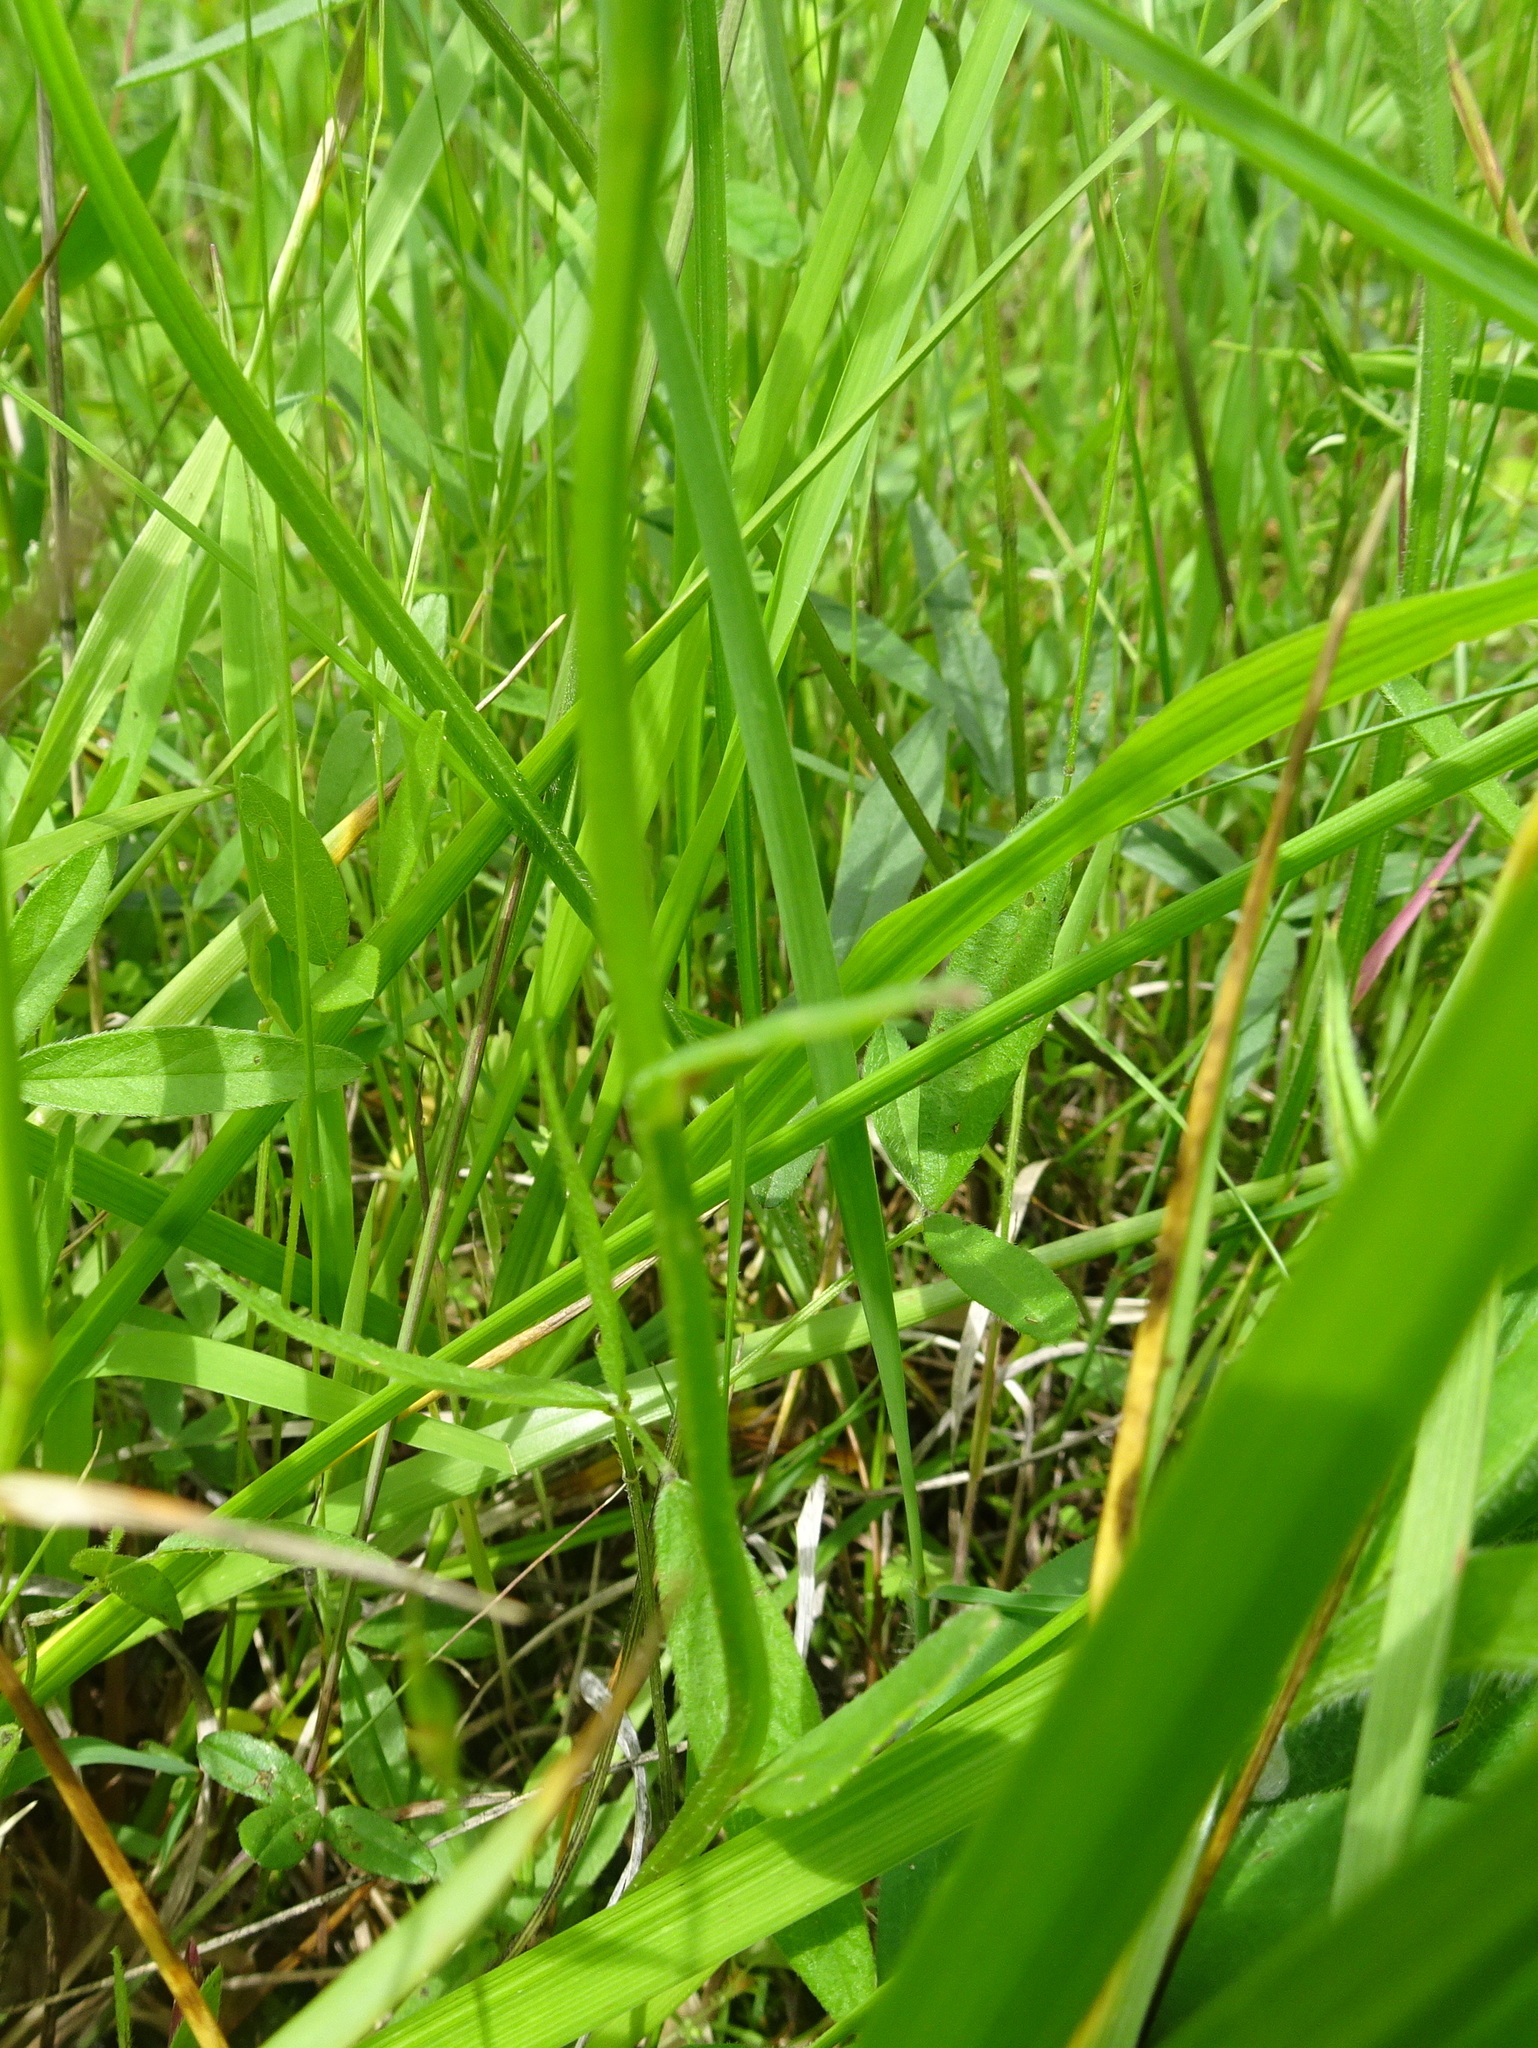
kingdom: Plantae
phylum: Tracheophyta
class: Magnoliopsida
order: Asterales
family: Campanulaceae
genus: Lobelia
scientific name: Lobelia spicata
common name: Pale-spike lobelia
